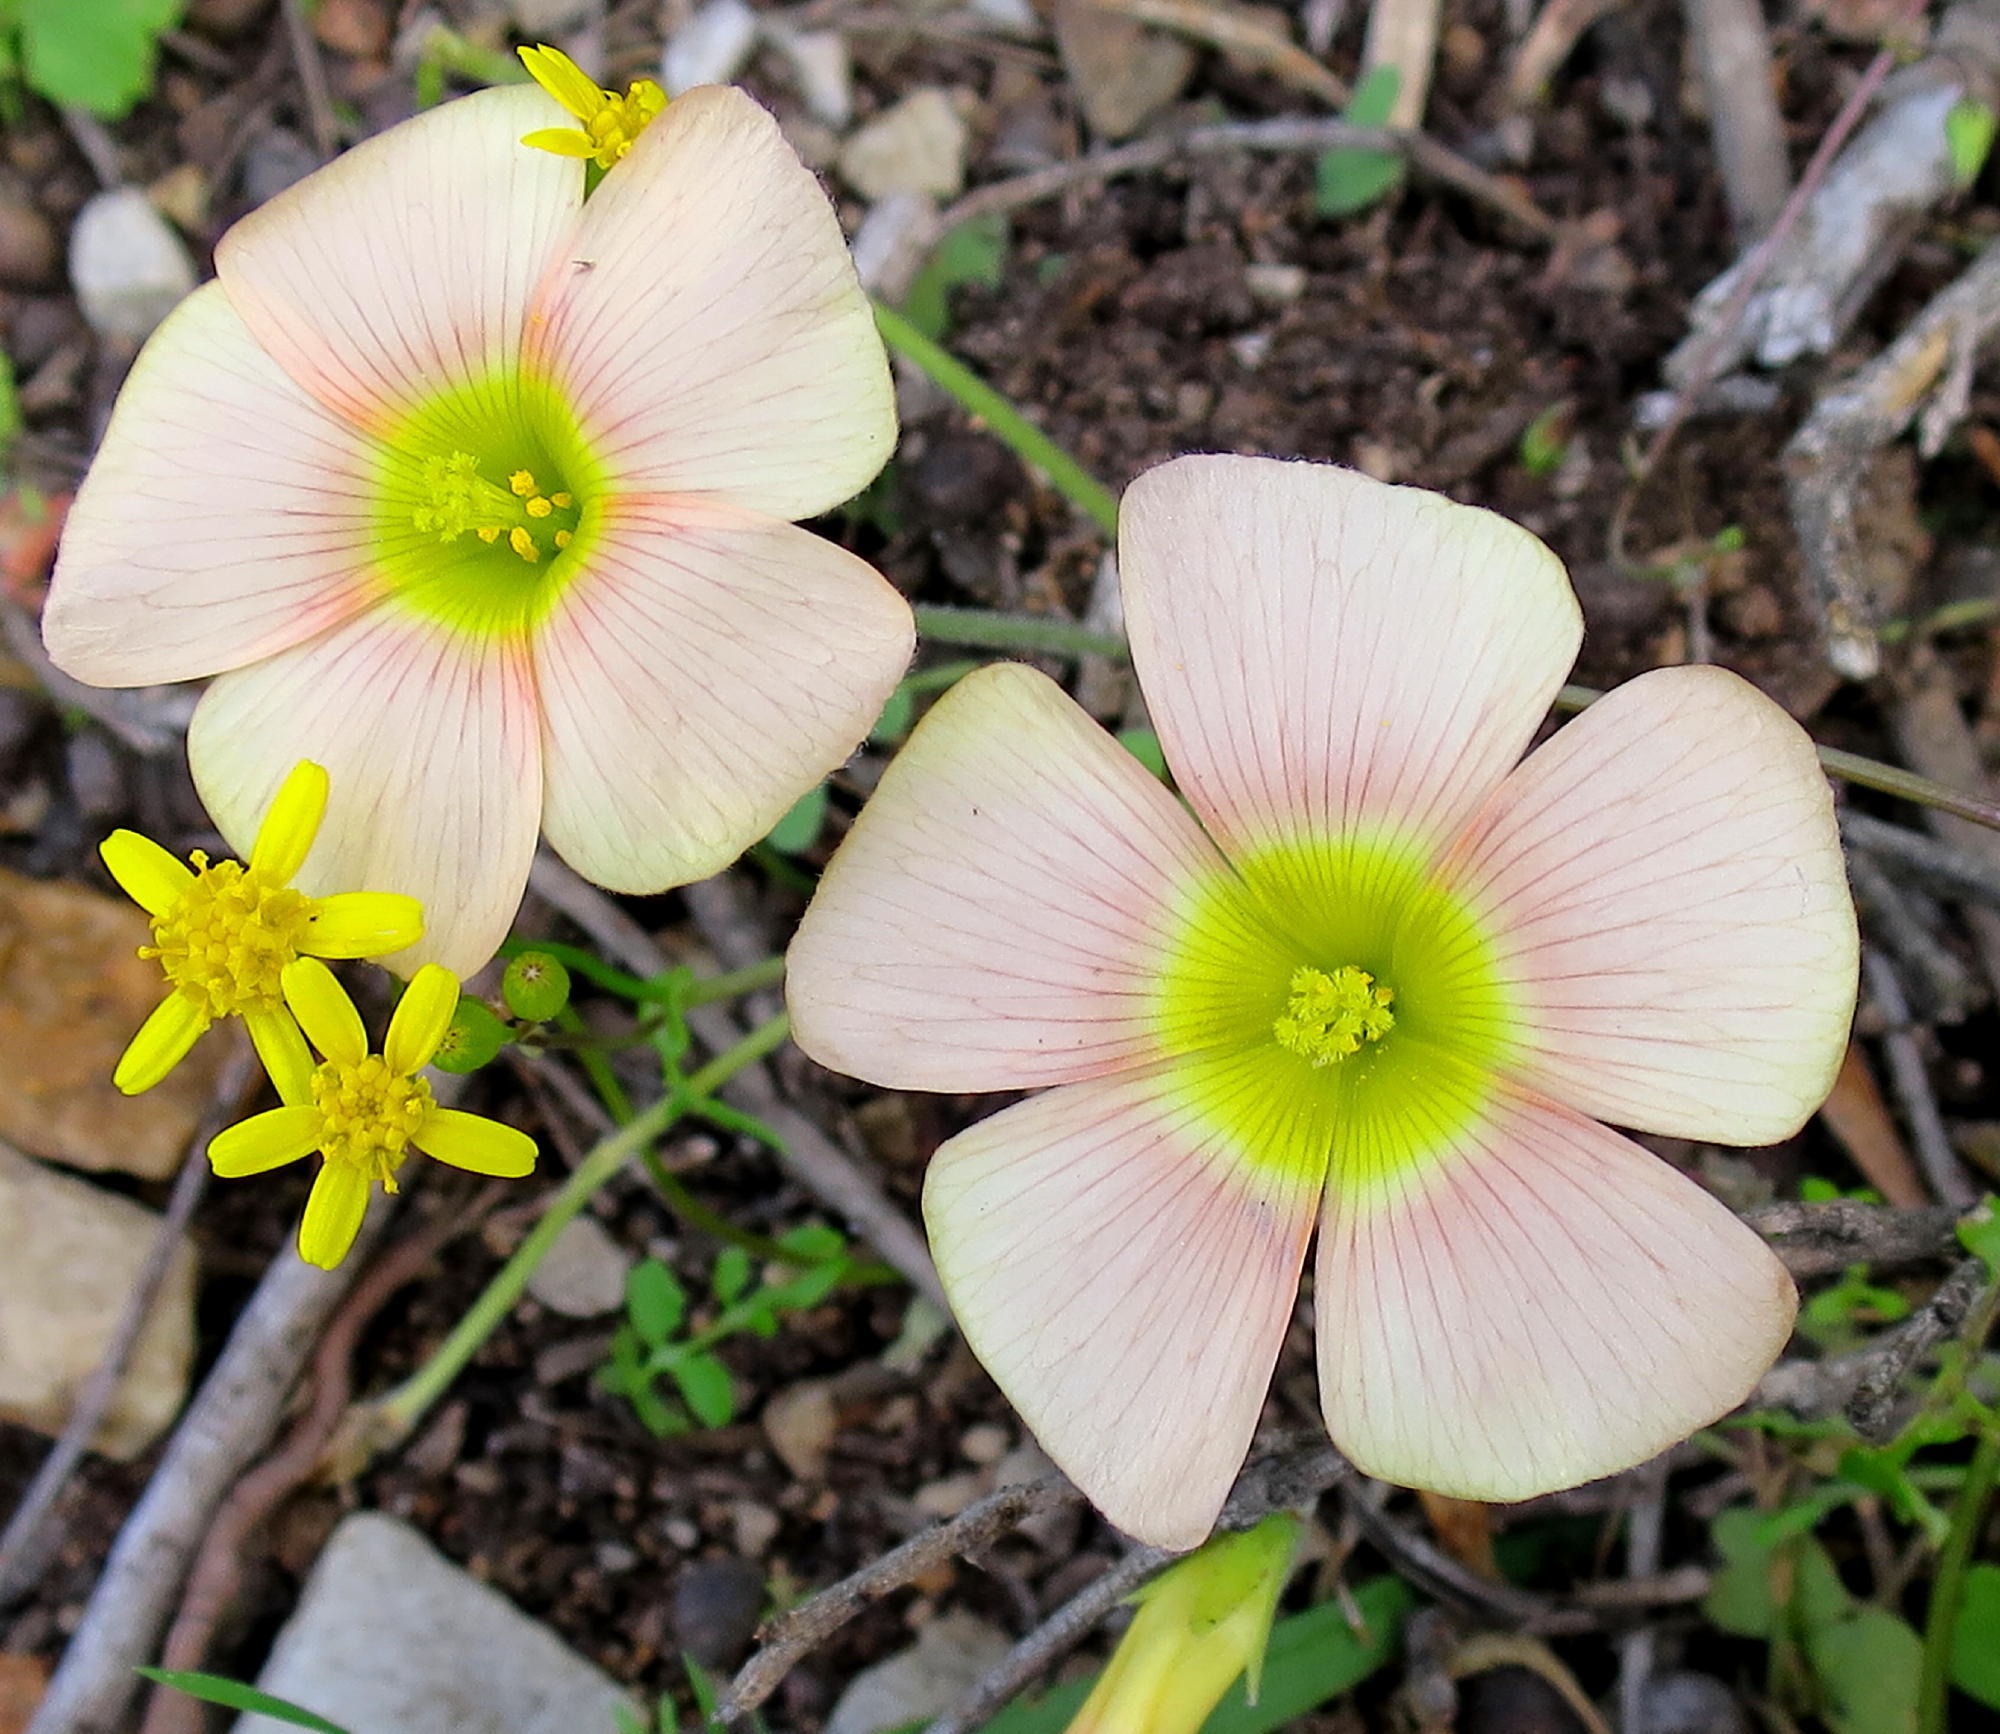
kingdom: Plantae
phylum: Tracheophyta
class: Magnoliopsida
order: Oxalidales
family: Oxalidaceae
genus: Oxalis
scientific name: Oxalis obtusa
